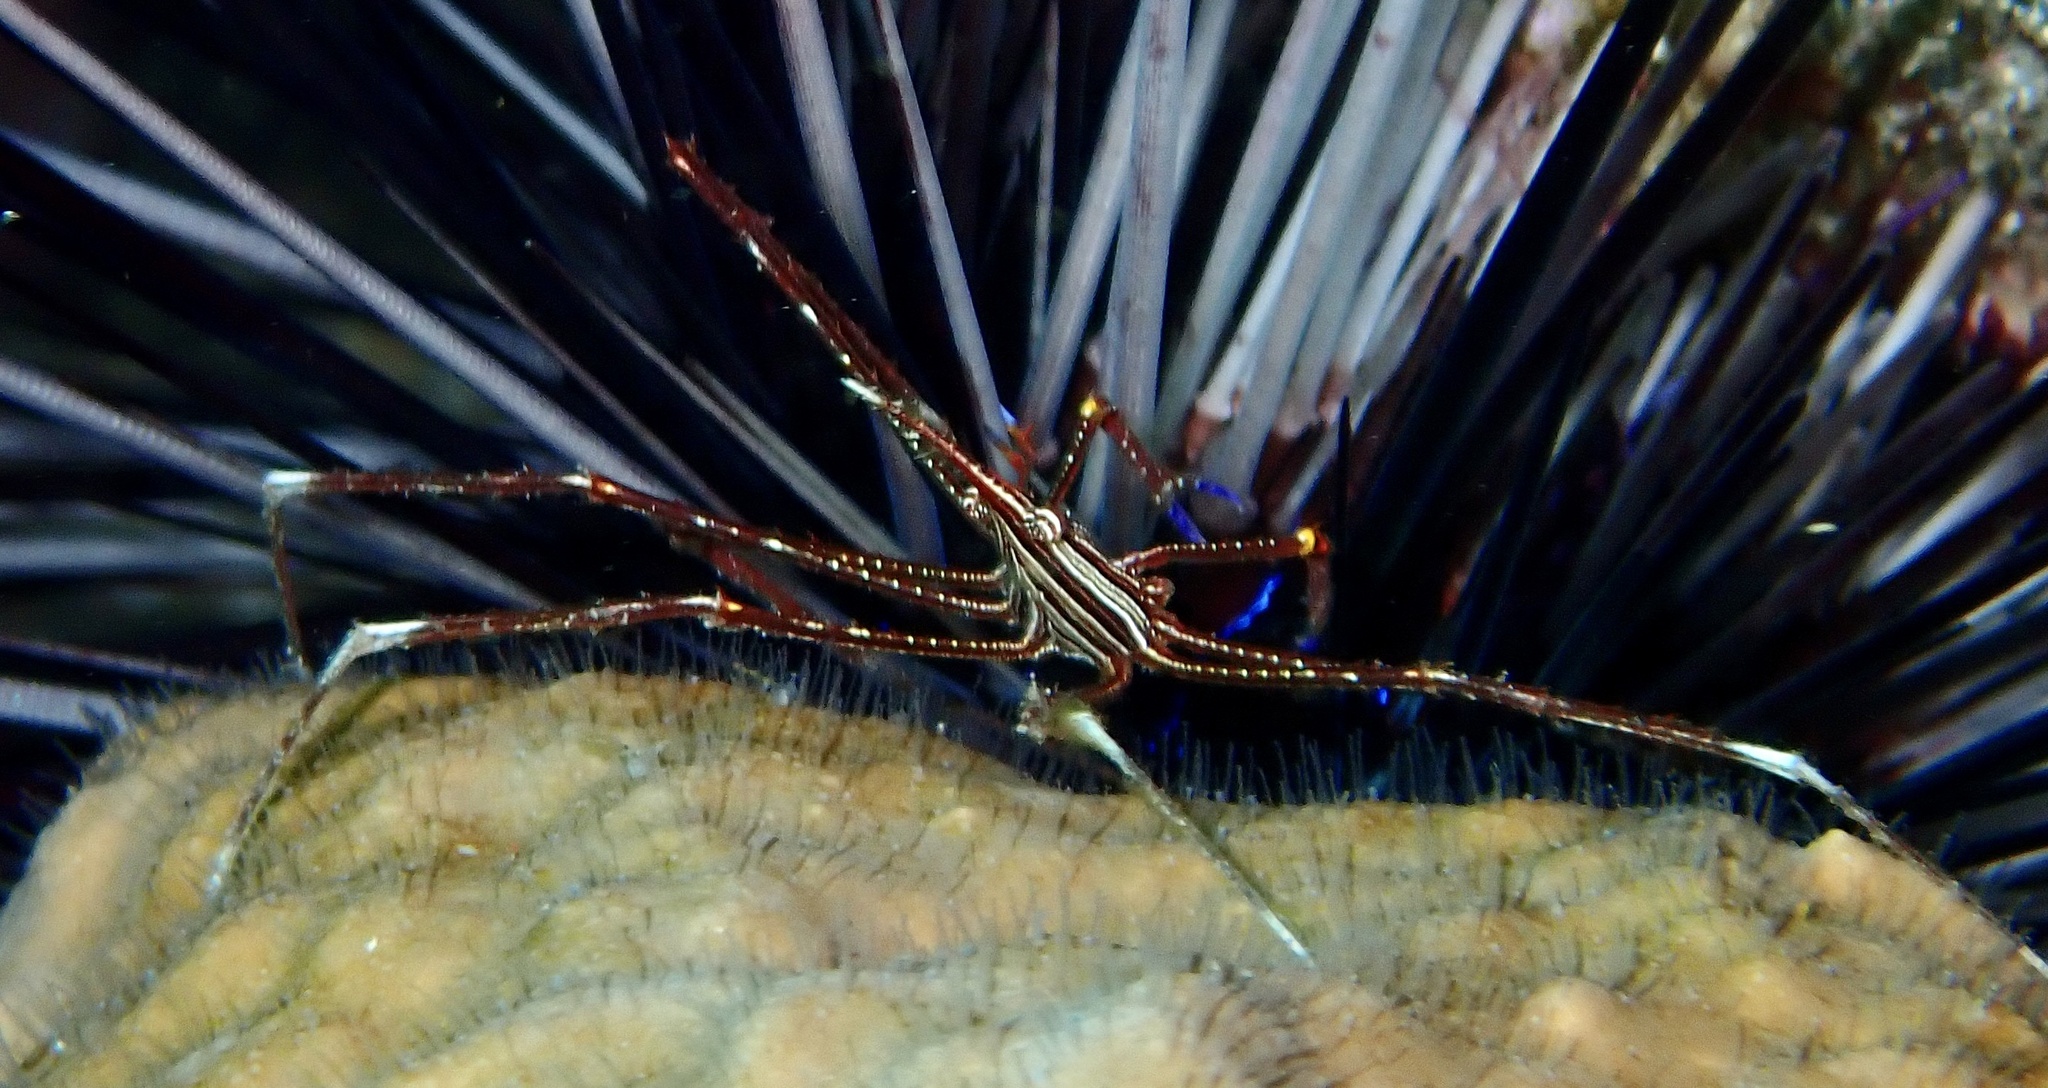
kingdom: Animalia
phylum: Arthropoda
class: Malacostraca
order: Decapoda
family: Inachoididae
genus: Stenorhynchus
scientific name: Stenorhynchus lanceolatus
